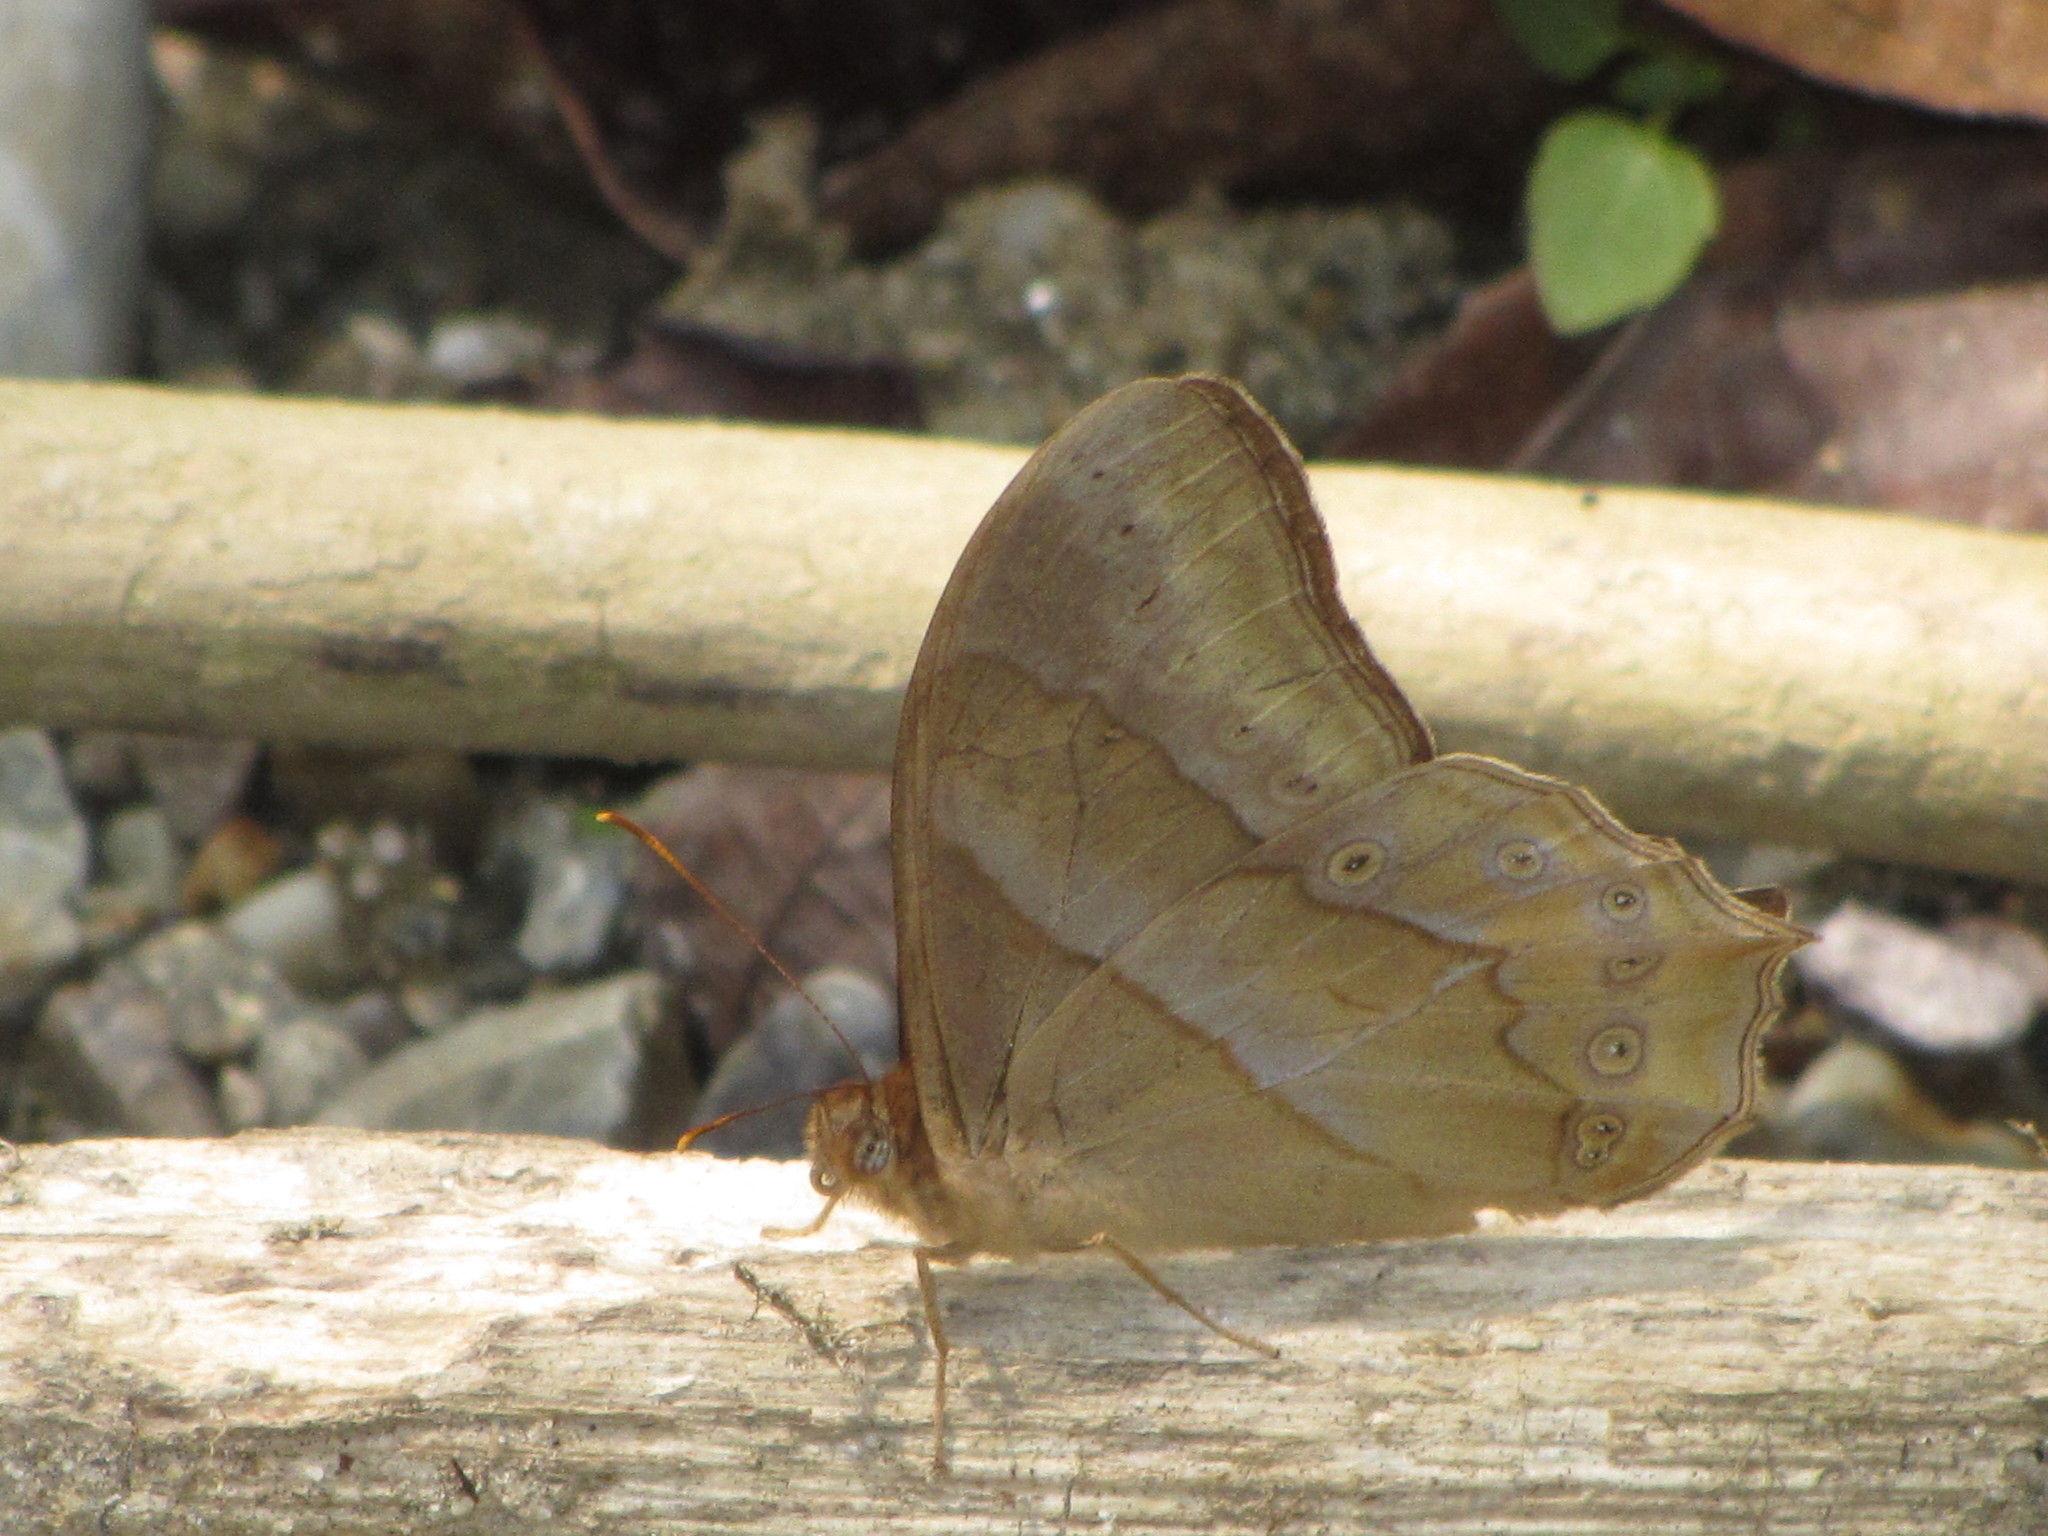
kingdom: Animalia
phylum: Arthropoda
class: Insecta
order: Lepidoptera
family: Nymphalidae
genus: Lethe
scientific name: Lethe mekara
